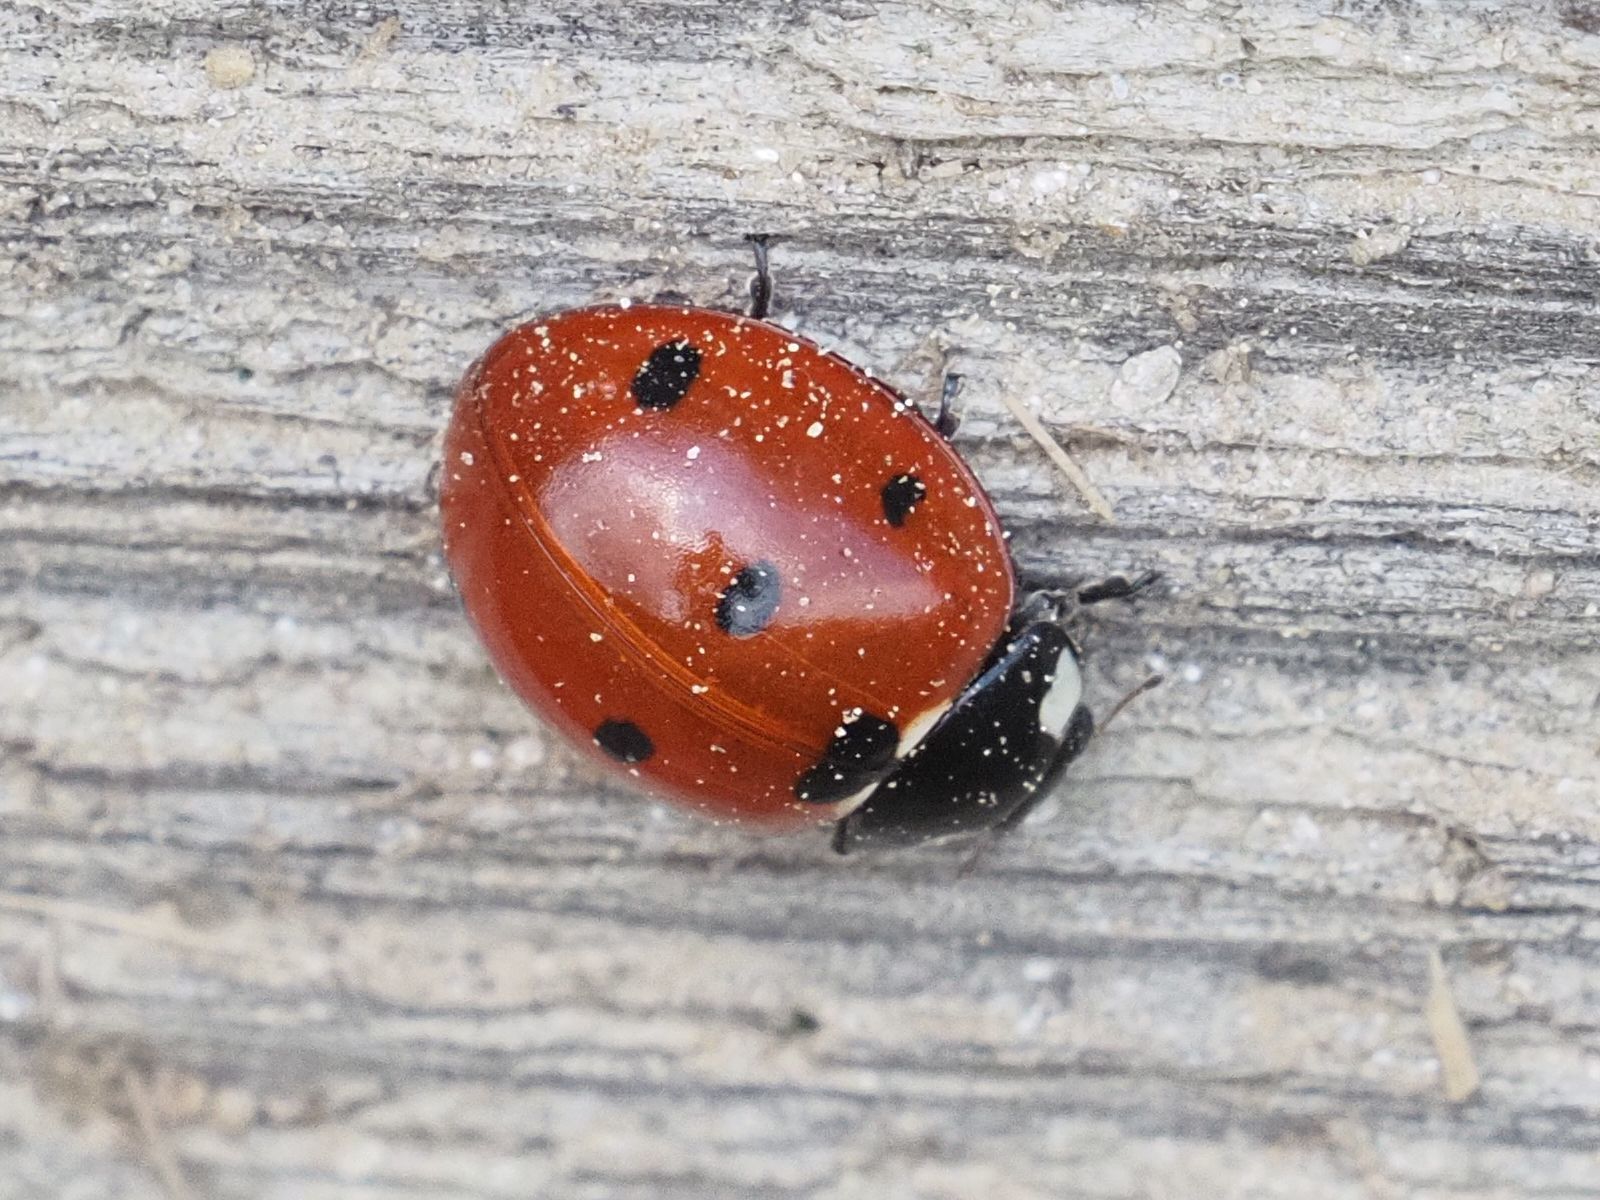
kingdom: Animalia
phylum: Arthropoda
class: Insecta
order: Coleoptera
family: Coccinellidae
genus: Coccinella
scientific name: Coccinella septempunctata
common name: Sevenspotted lady beetle
